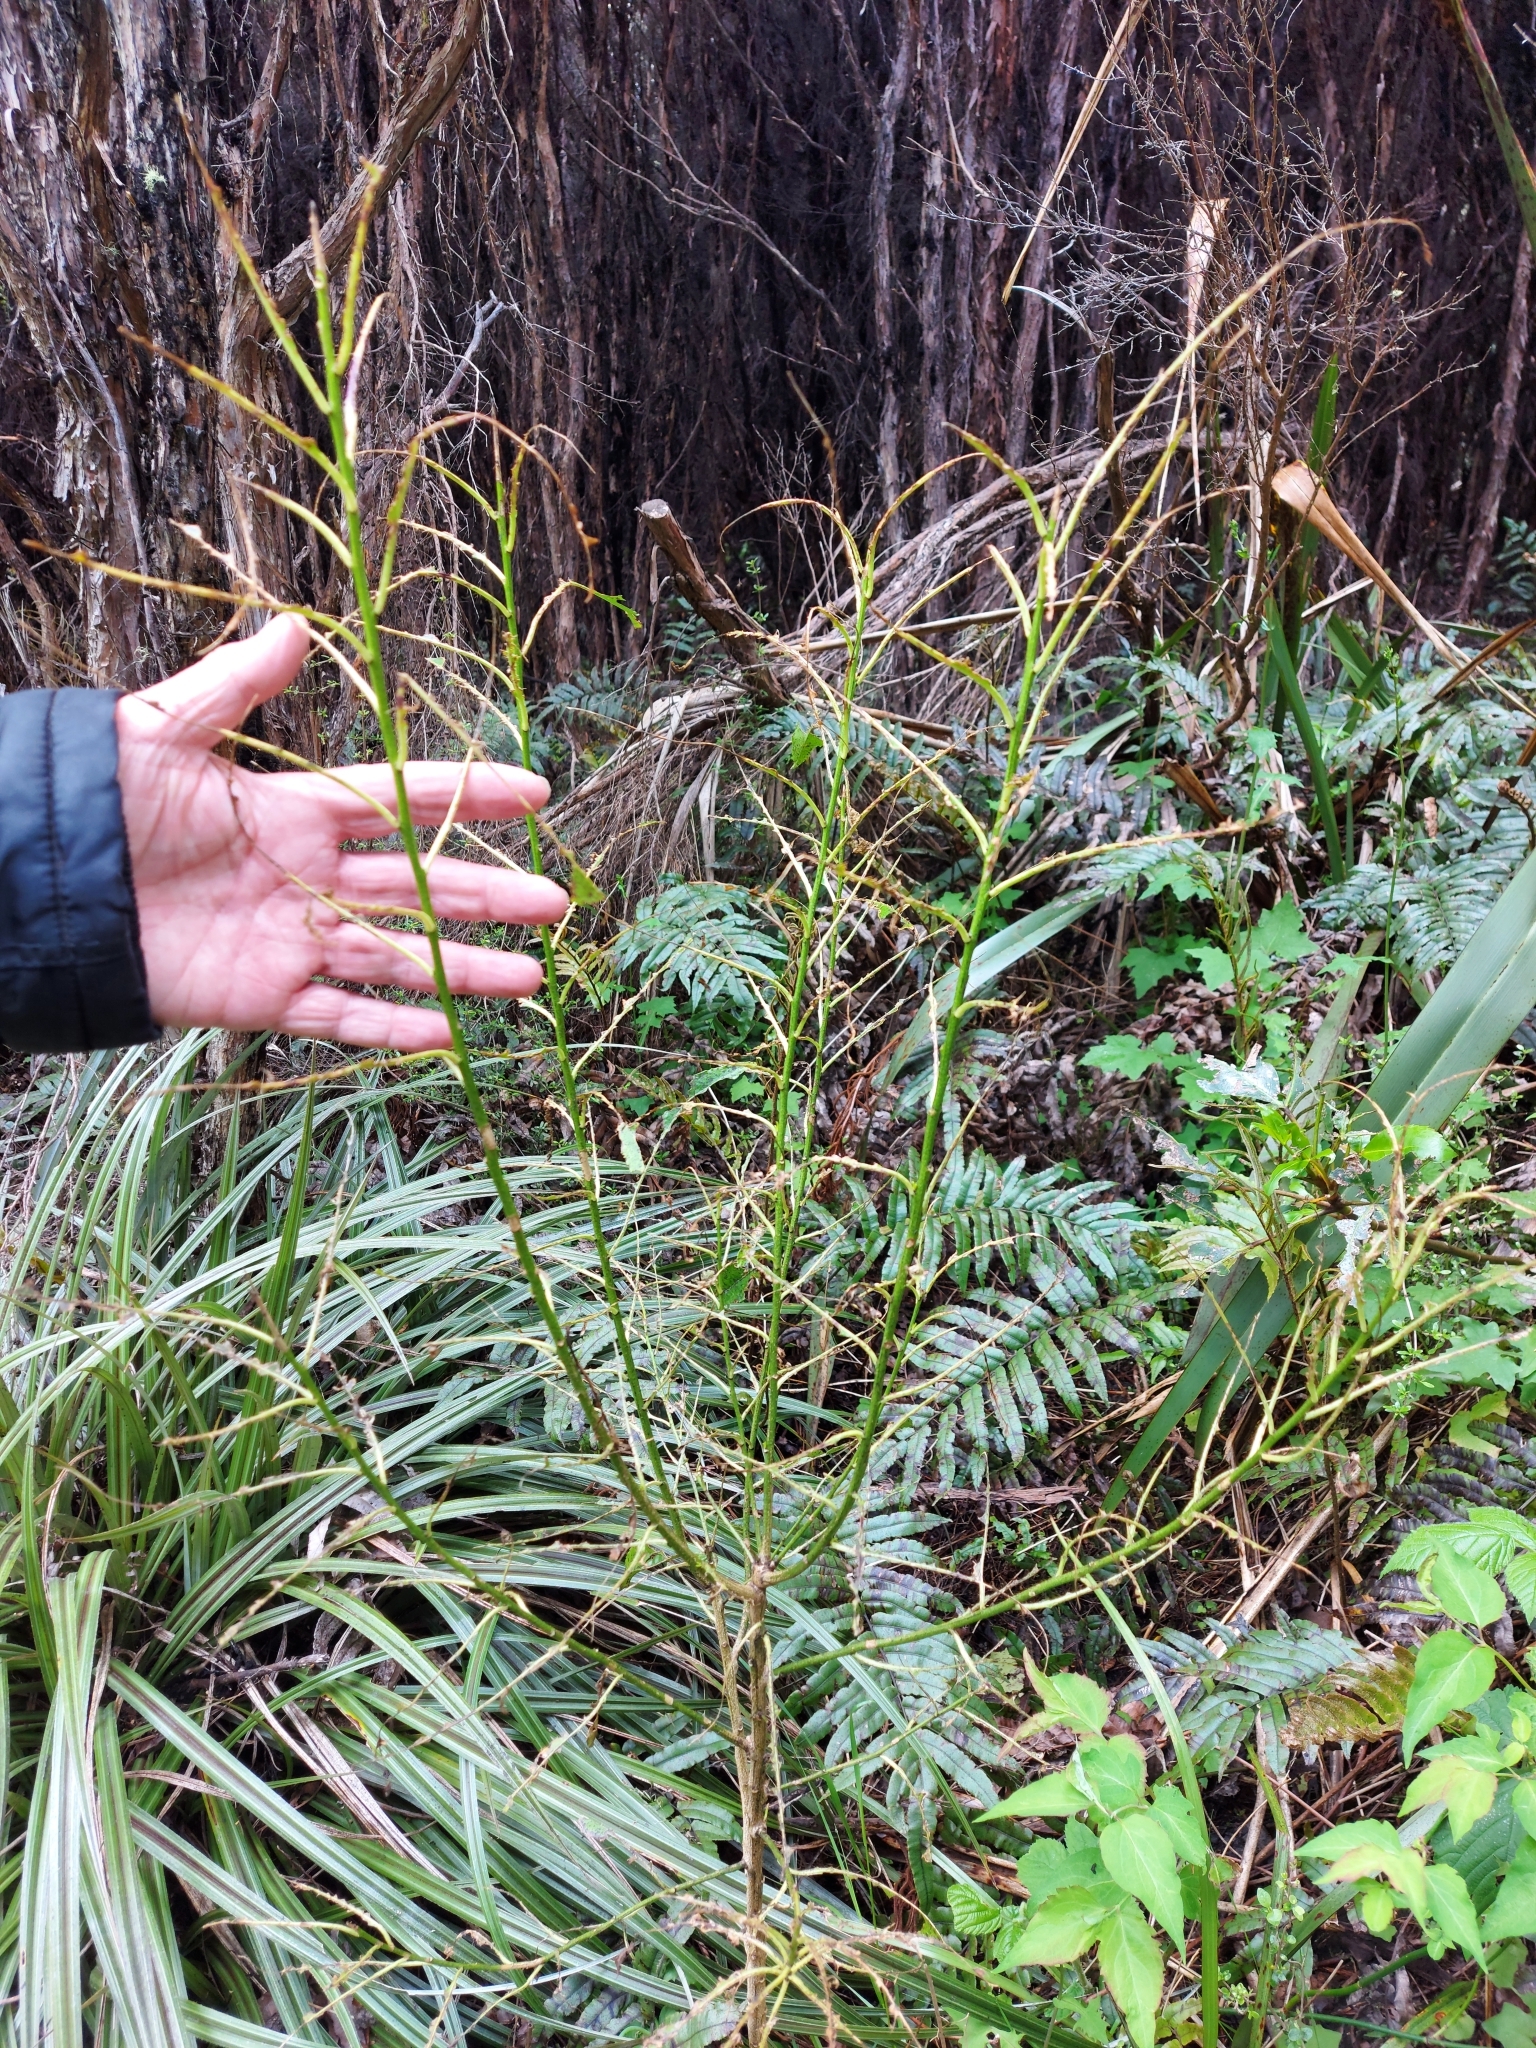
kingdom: Plantae
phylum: Tracheophyta
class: Magnoliopsida
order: Malpighiales
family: Violaceae
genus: Melicytus
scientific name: Melicytus ramiflorus
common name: Mahoe
